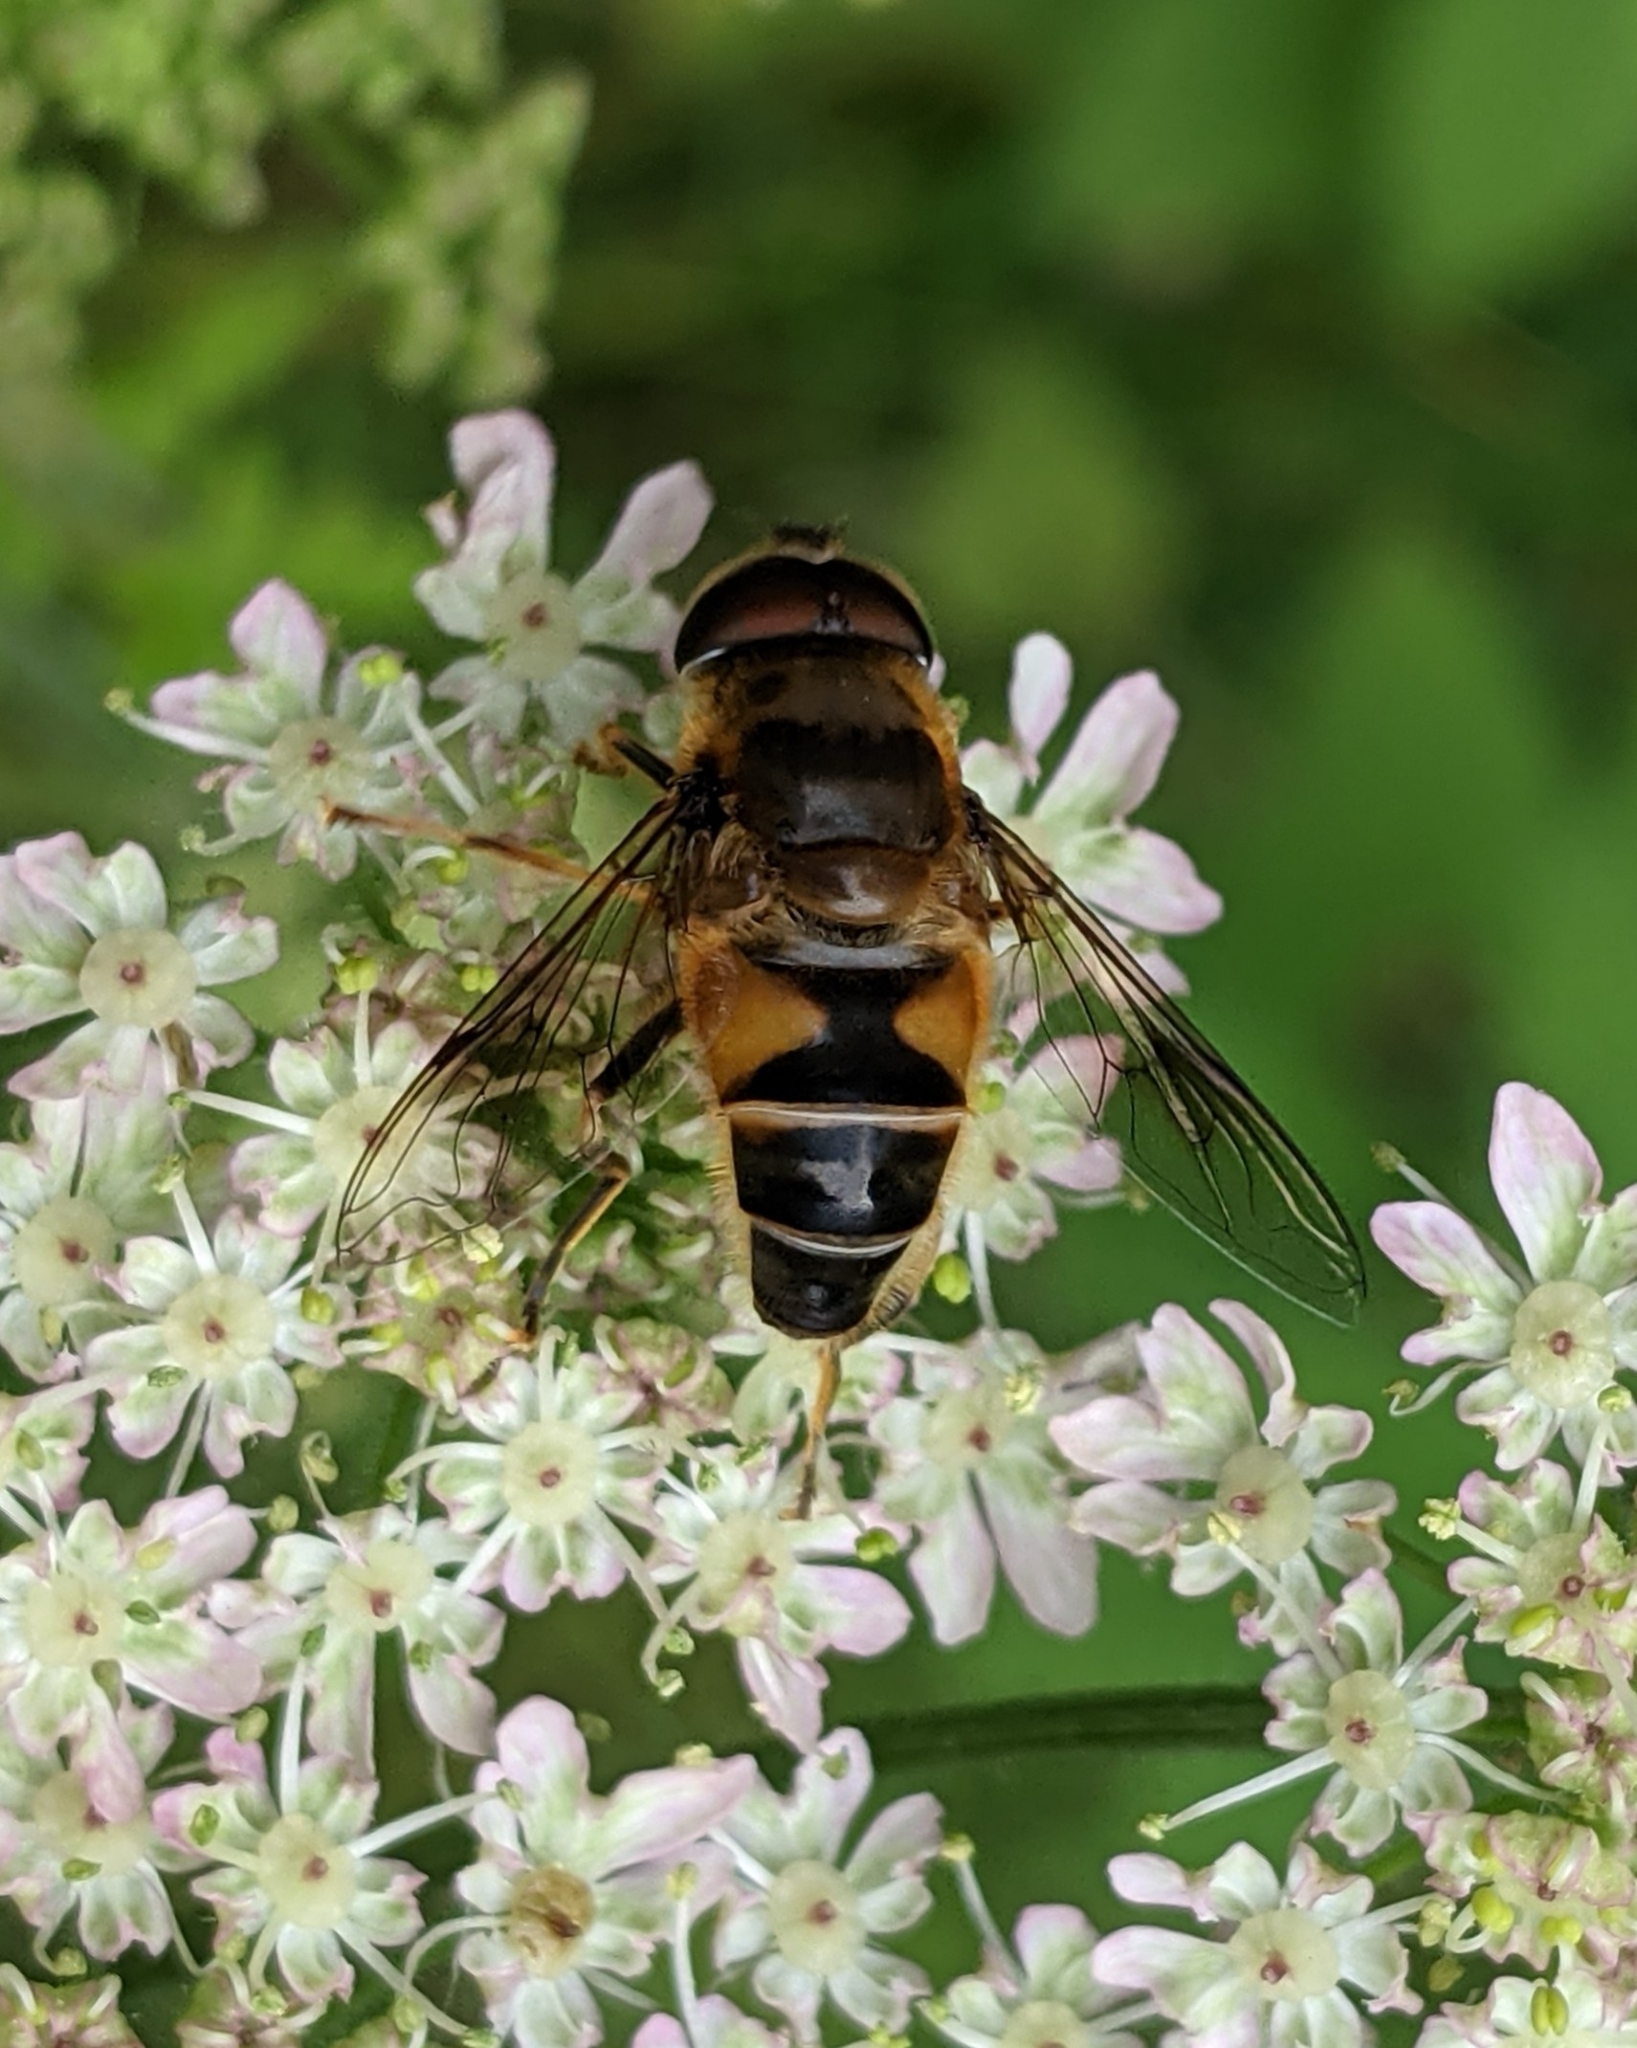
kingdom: Animalia
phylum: Arthropoda
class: Insecta
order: Diptera
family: Syrphidae
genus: Eristalis
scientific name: Eristalis pertinax
